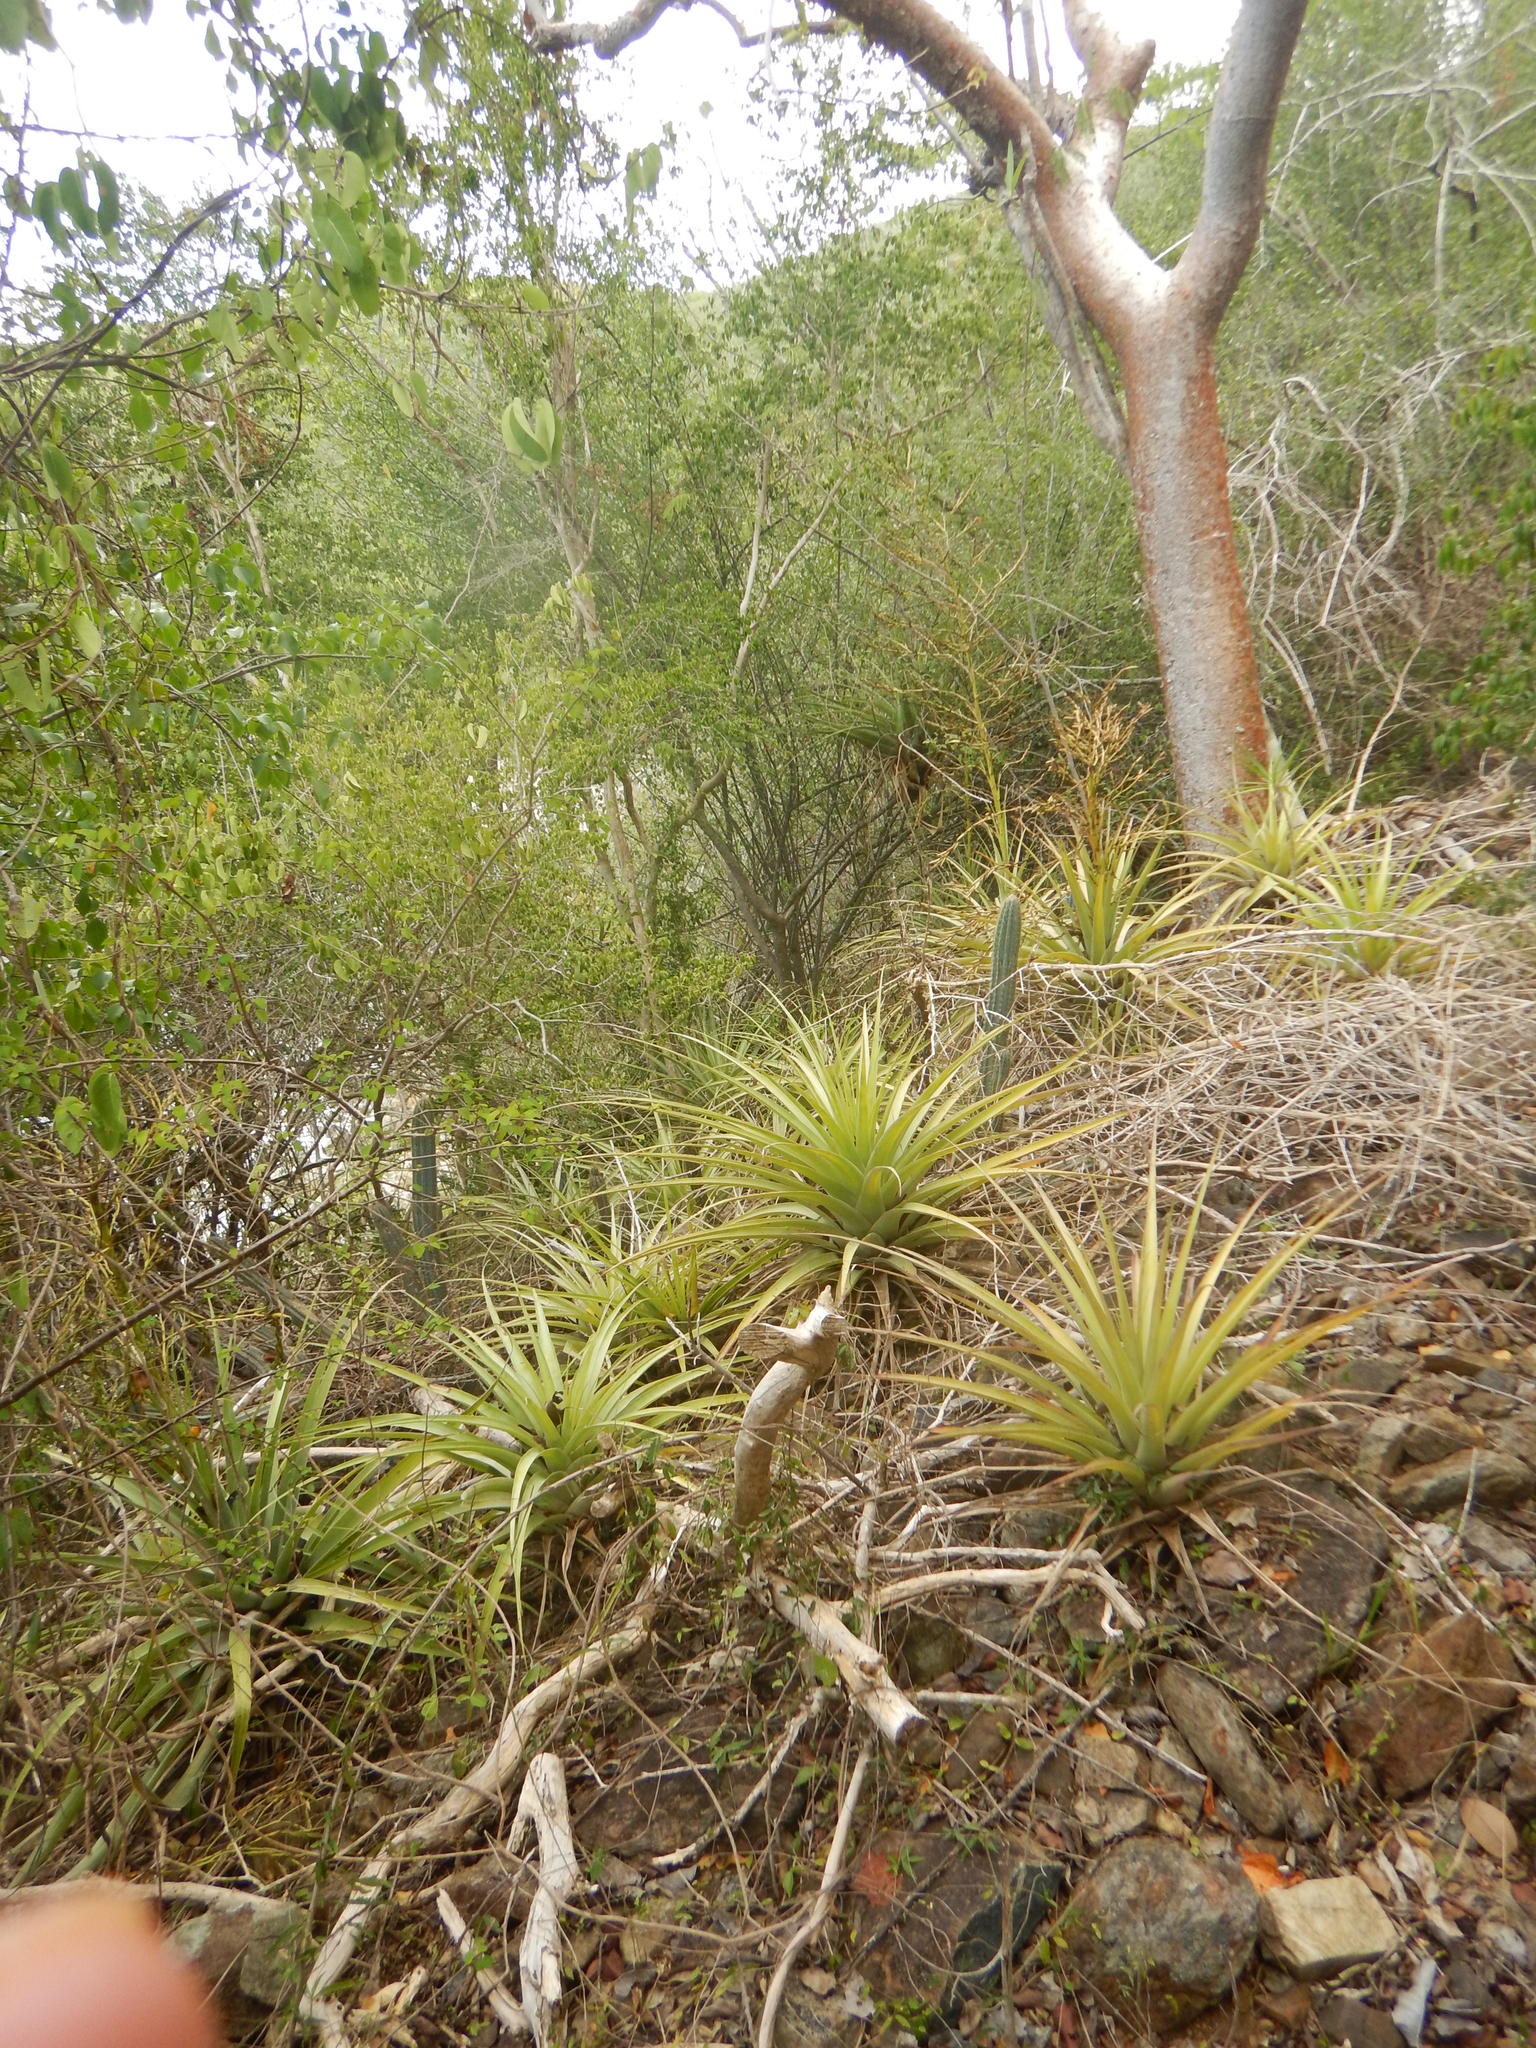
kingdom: Plantae
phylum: Tracheophyta
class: Liliopsida
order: Poales
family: Bromeliaceae
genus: Tillandsia
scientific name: Tillandsia utriculata
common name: Wild pine
